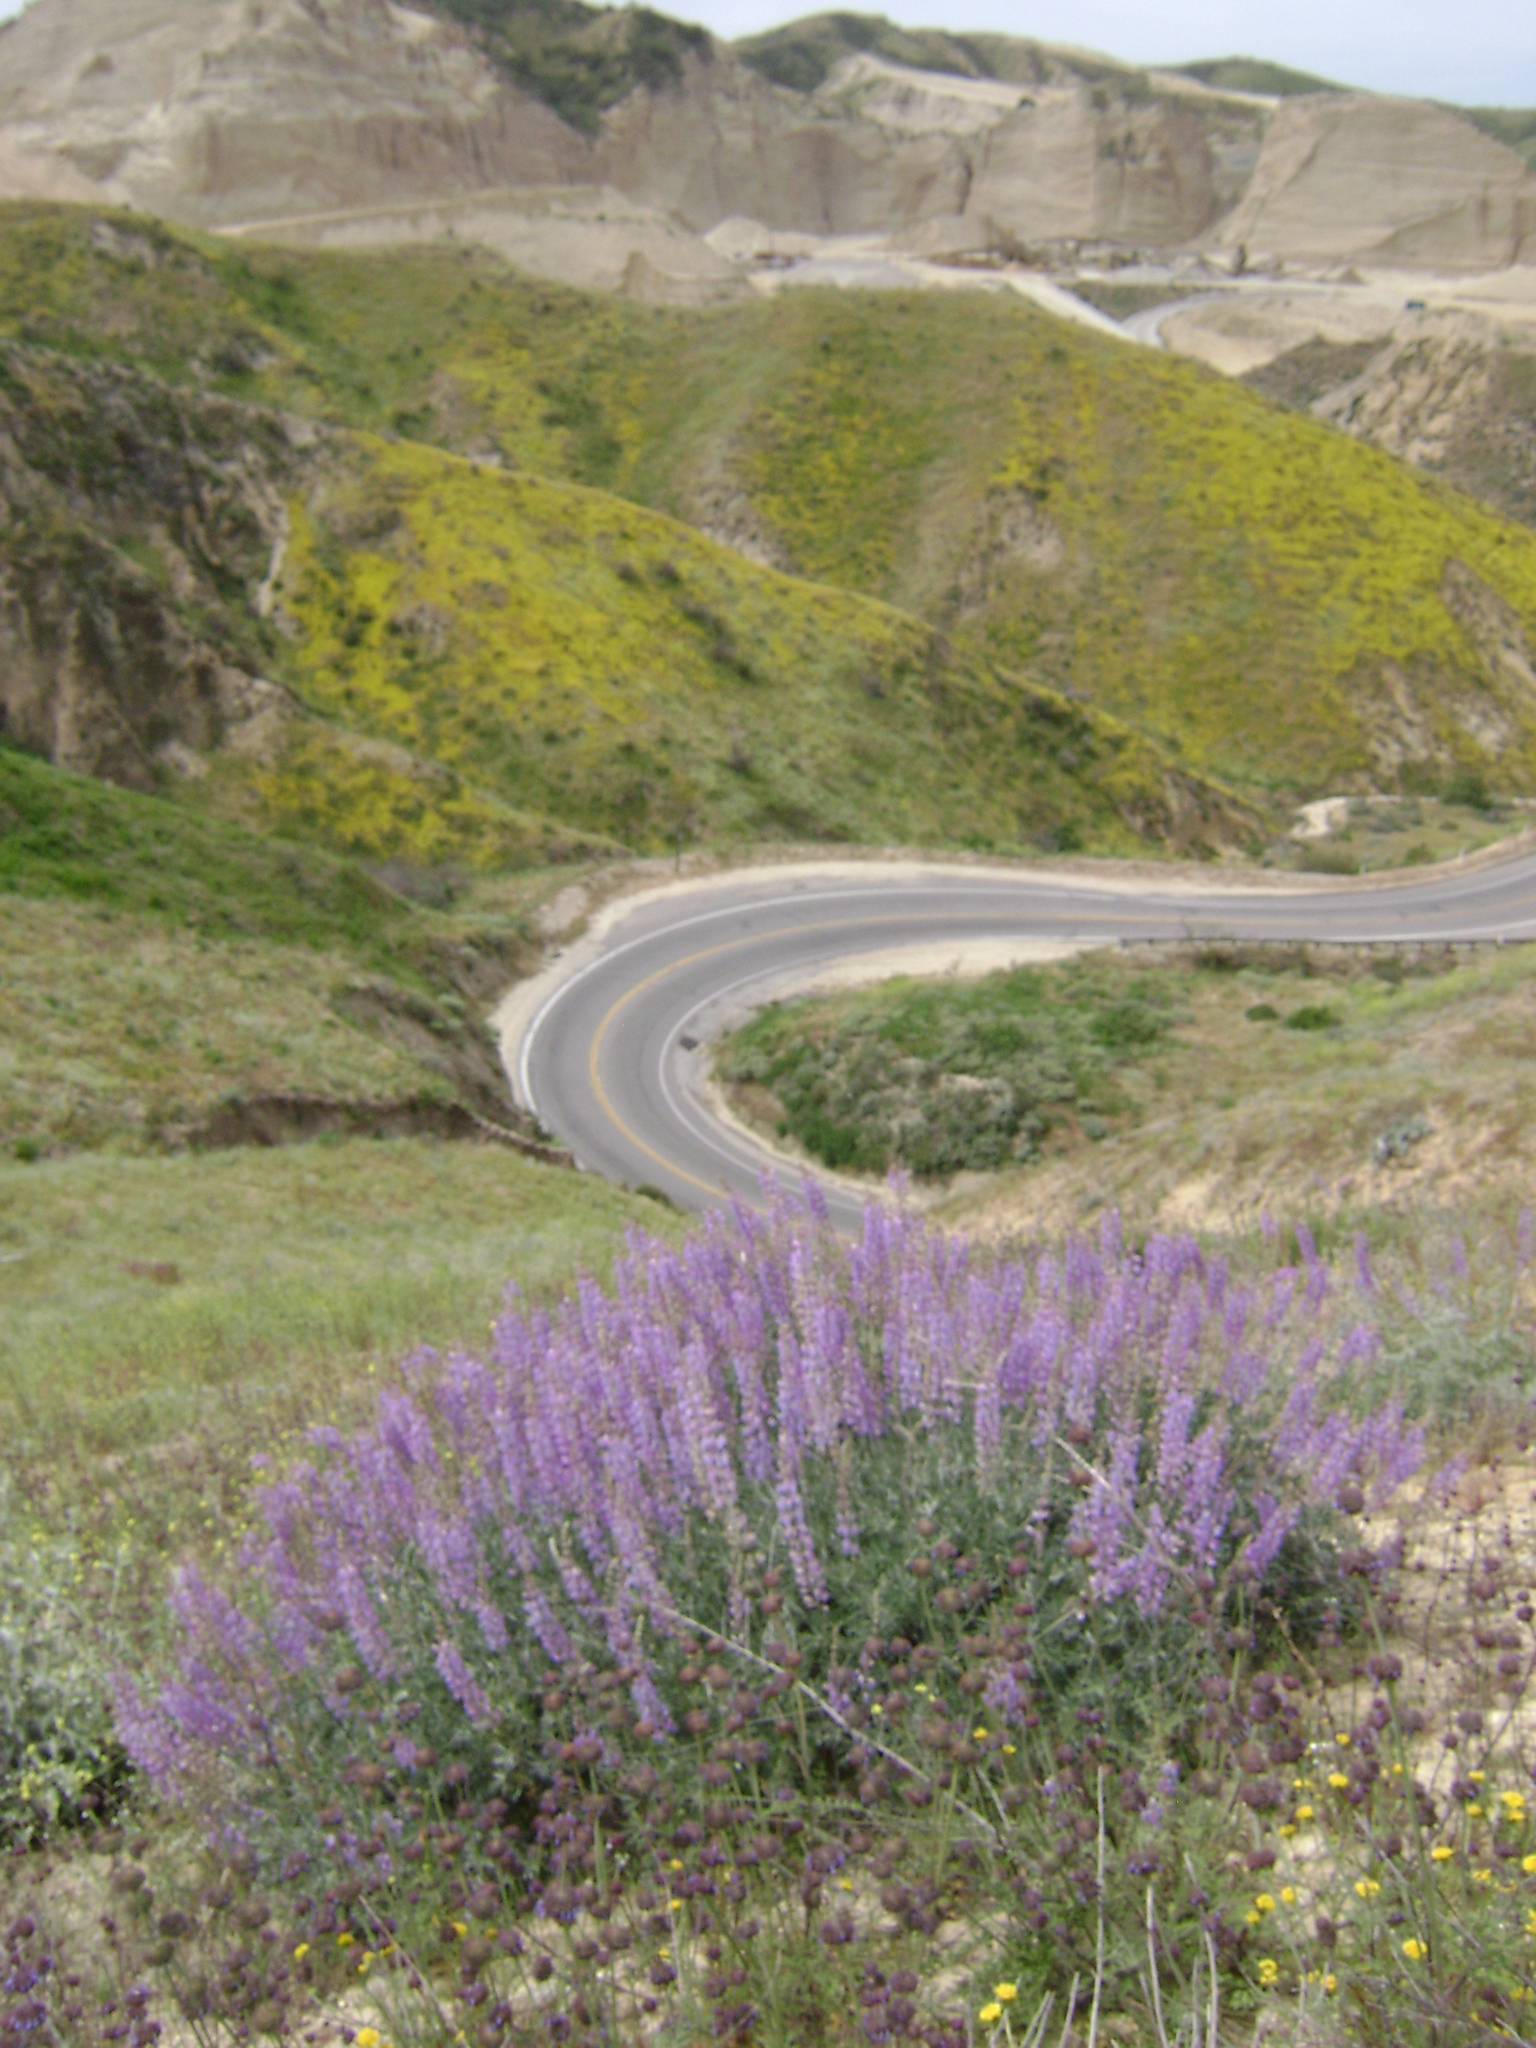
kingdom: Plantae
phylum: Tracheophyta
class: Magnoliopsida
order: Fabales
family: Fabaceae
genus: Lupinus
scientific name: Lupinus excubitus
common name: Grape soda lupine
